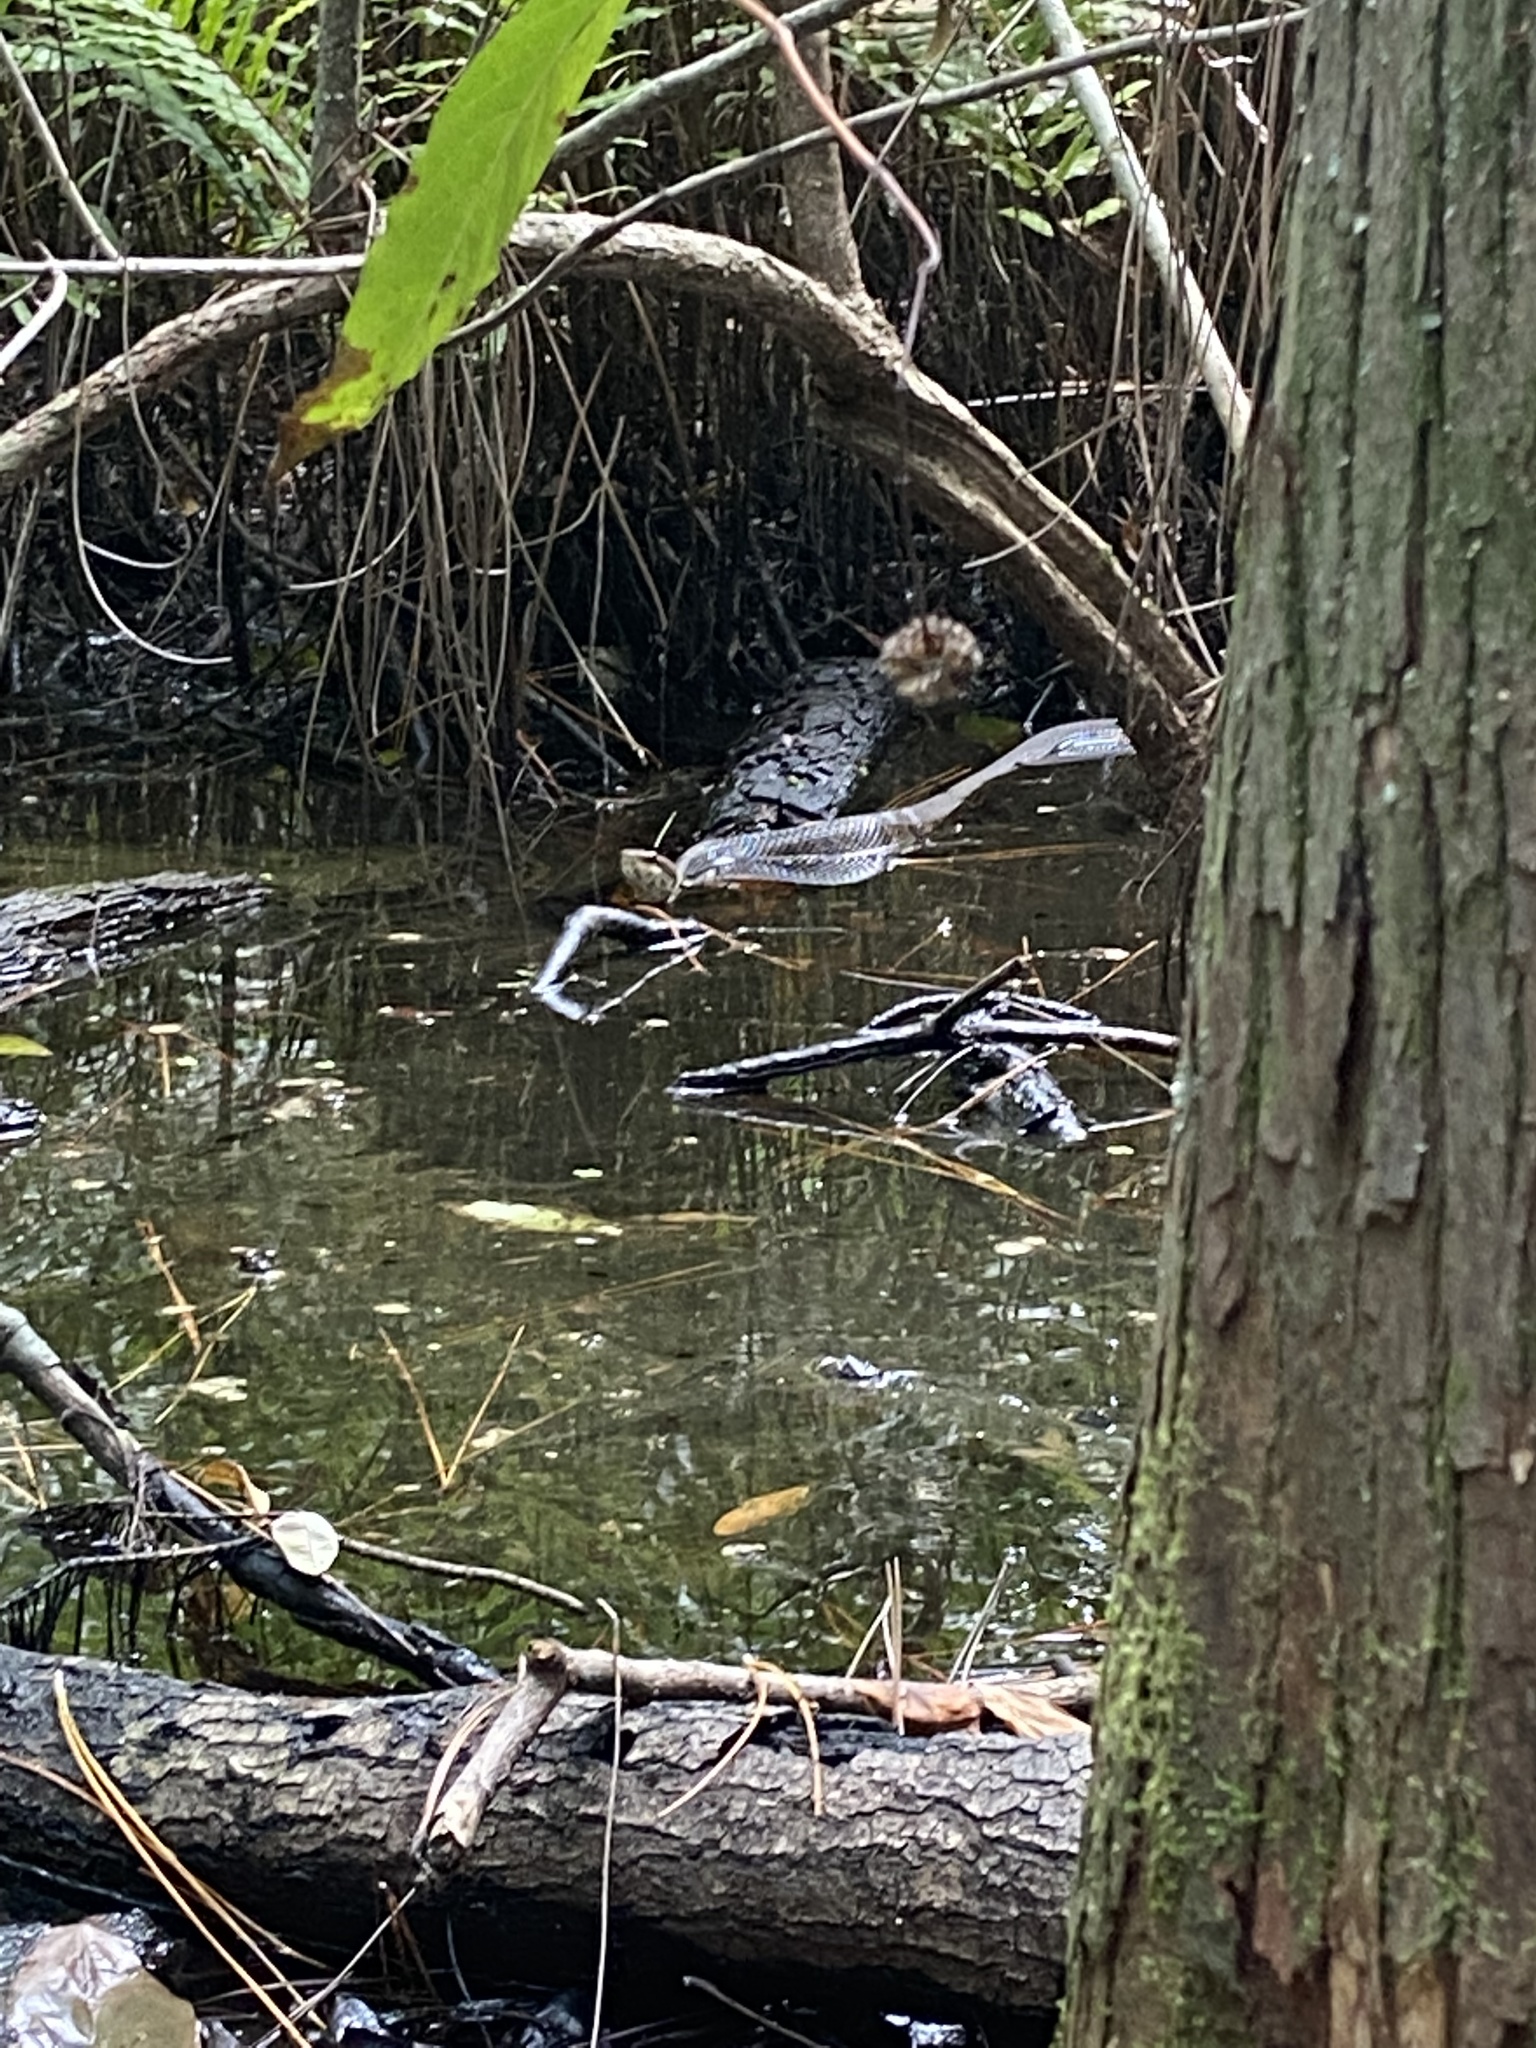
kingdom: Animalia
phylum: Chordata
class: Squamata
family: Viperidae
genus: Agkistrodon
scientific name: Agkistrodon conanti
